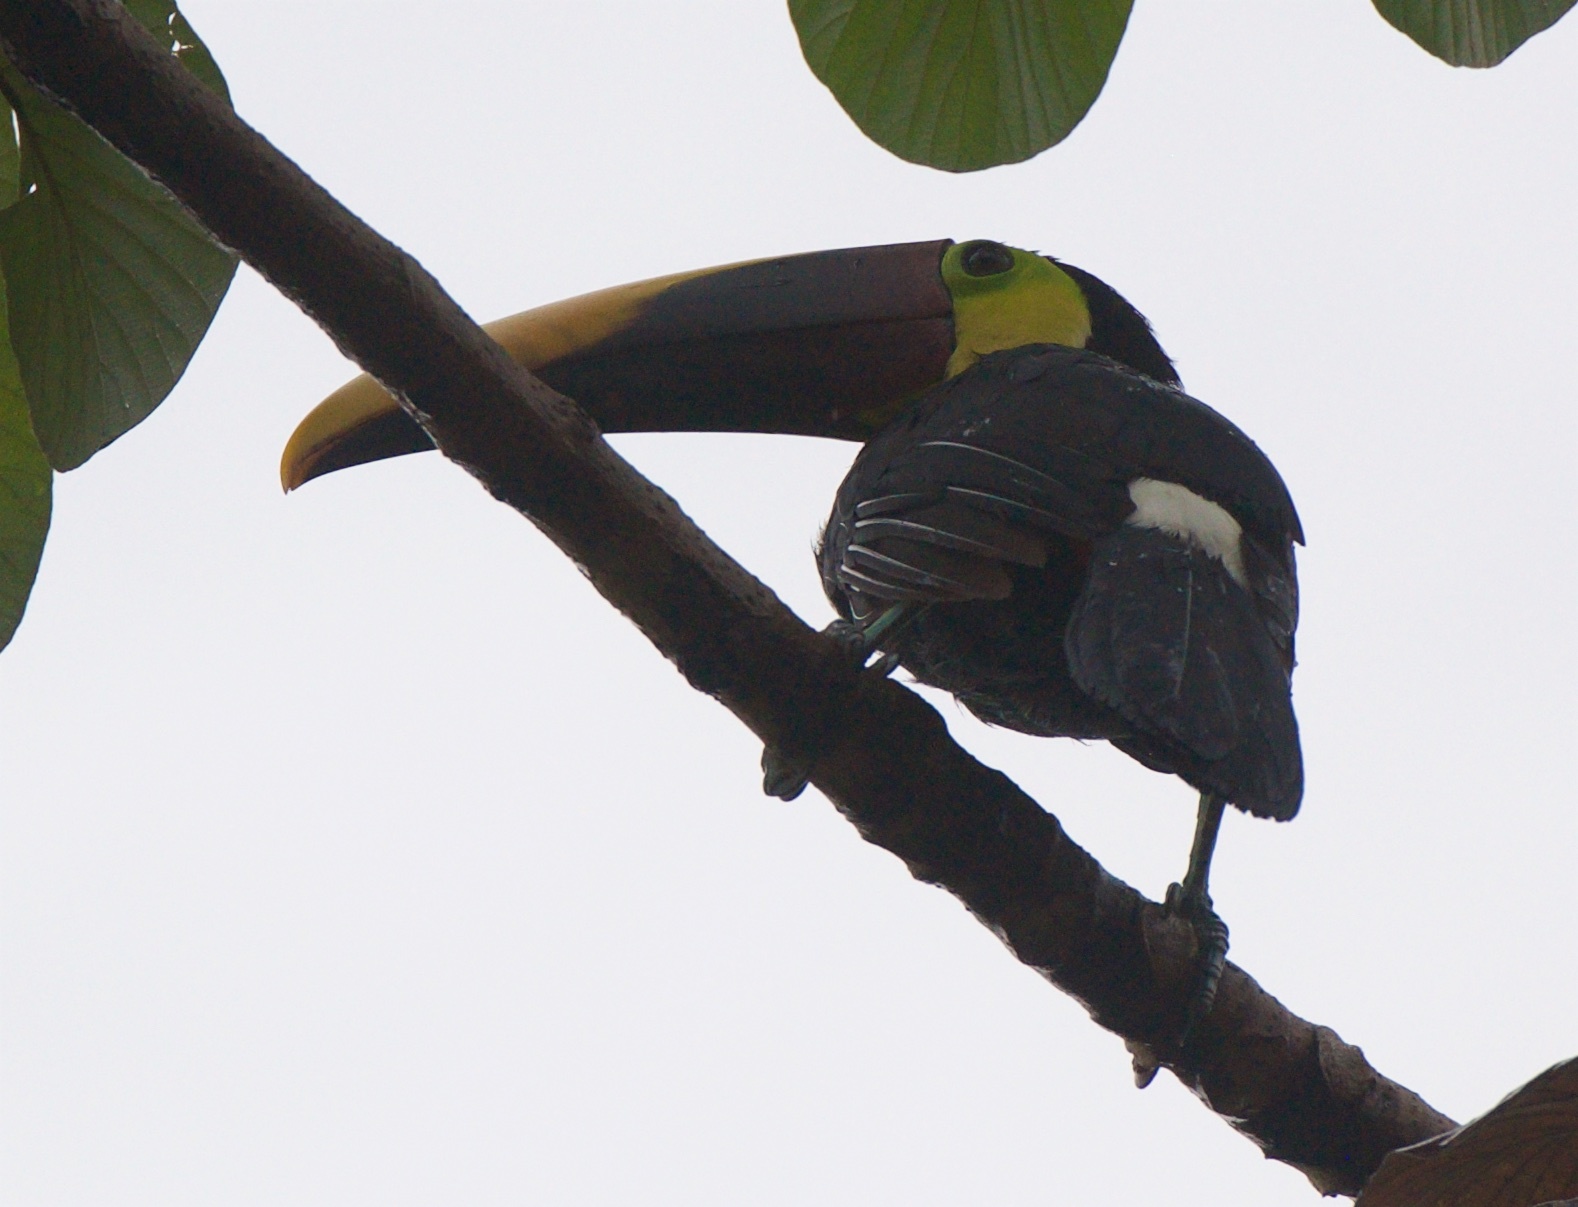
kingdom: Animalia
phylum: Chordata
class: Aves
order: Piciformes
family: Ramphastidae
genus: Ramphastos
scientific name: Ramphastos ambiguus
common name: Yellow-throated toucan
